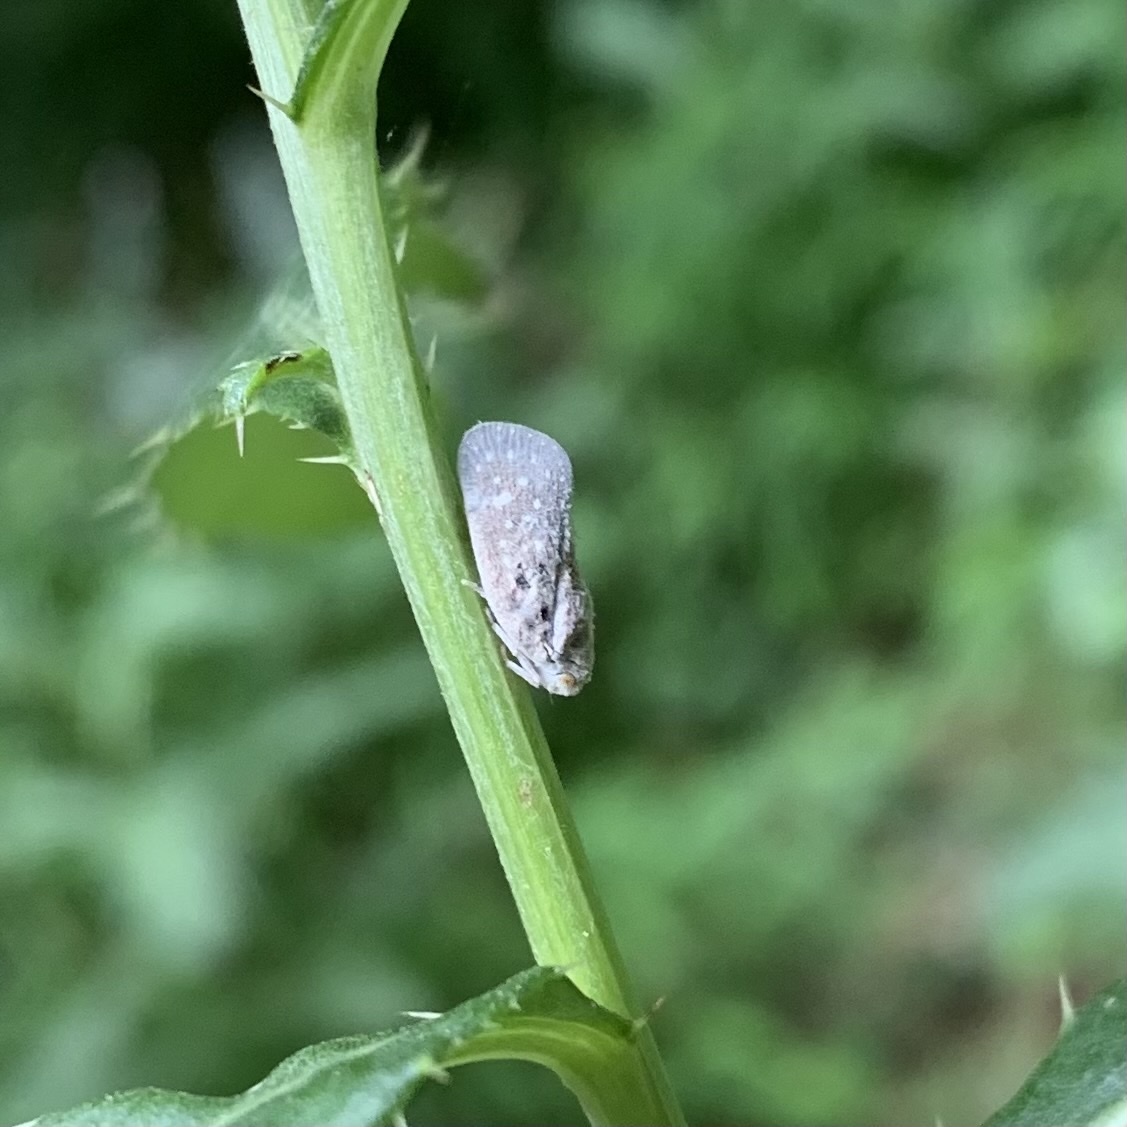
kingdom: Animalia
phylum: Arthropoda
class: Insecta
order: Hemiptera
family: Flatidae
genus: Metcalfa
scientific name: Metcalfa pruinosa
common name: Citrus flatid planthopper
